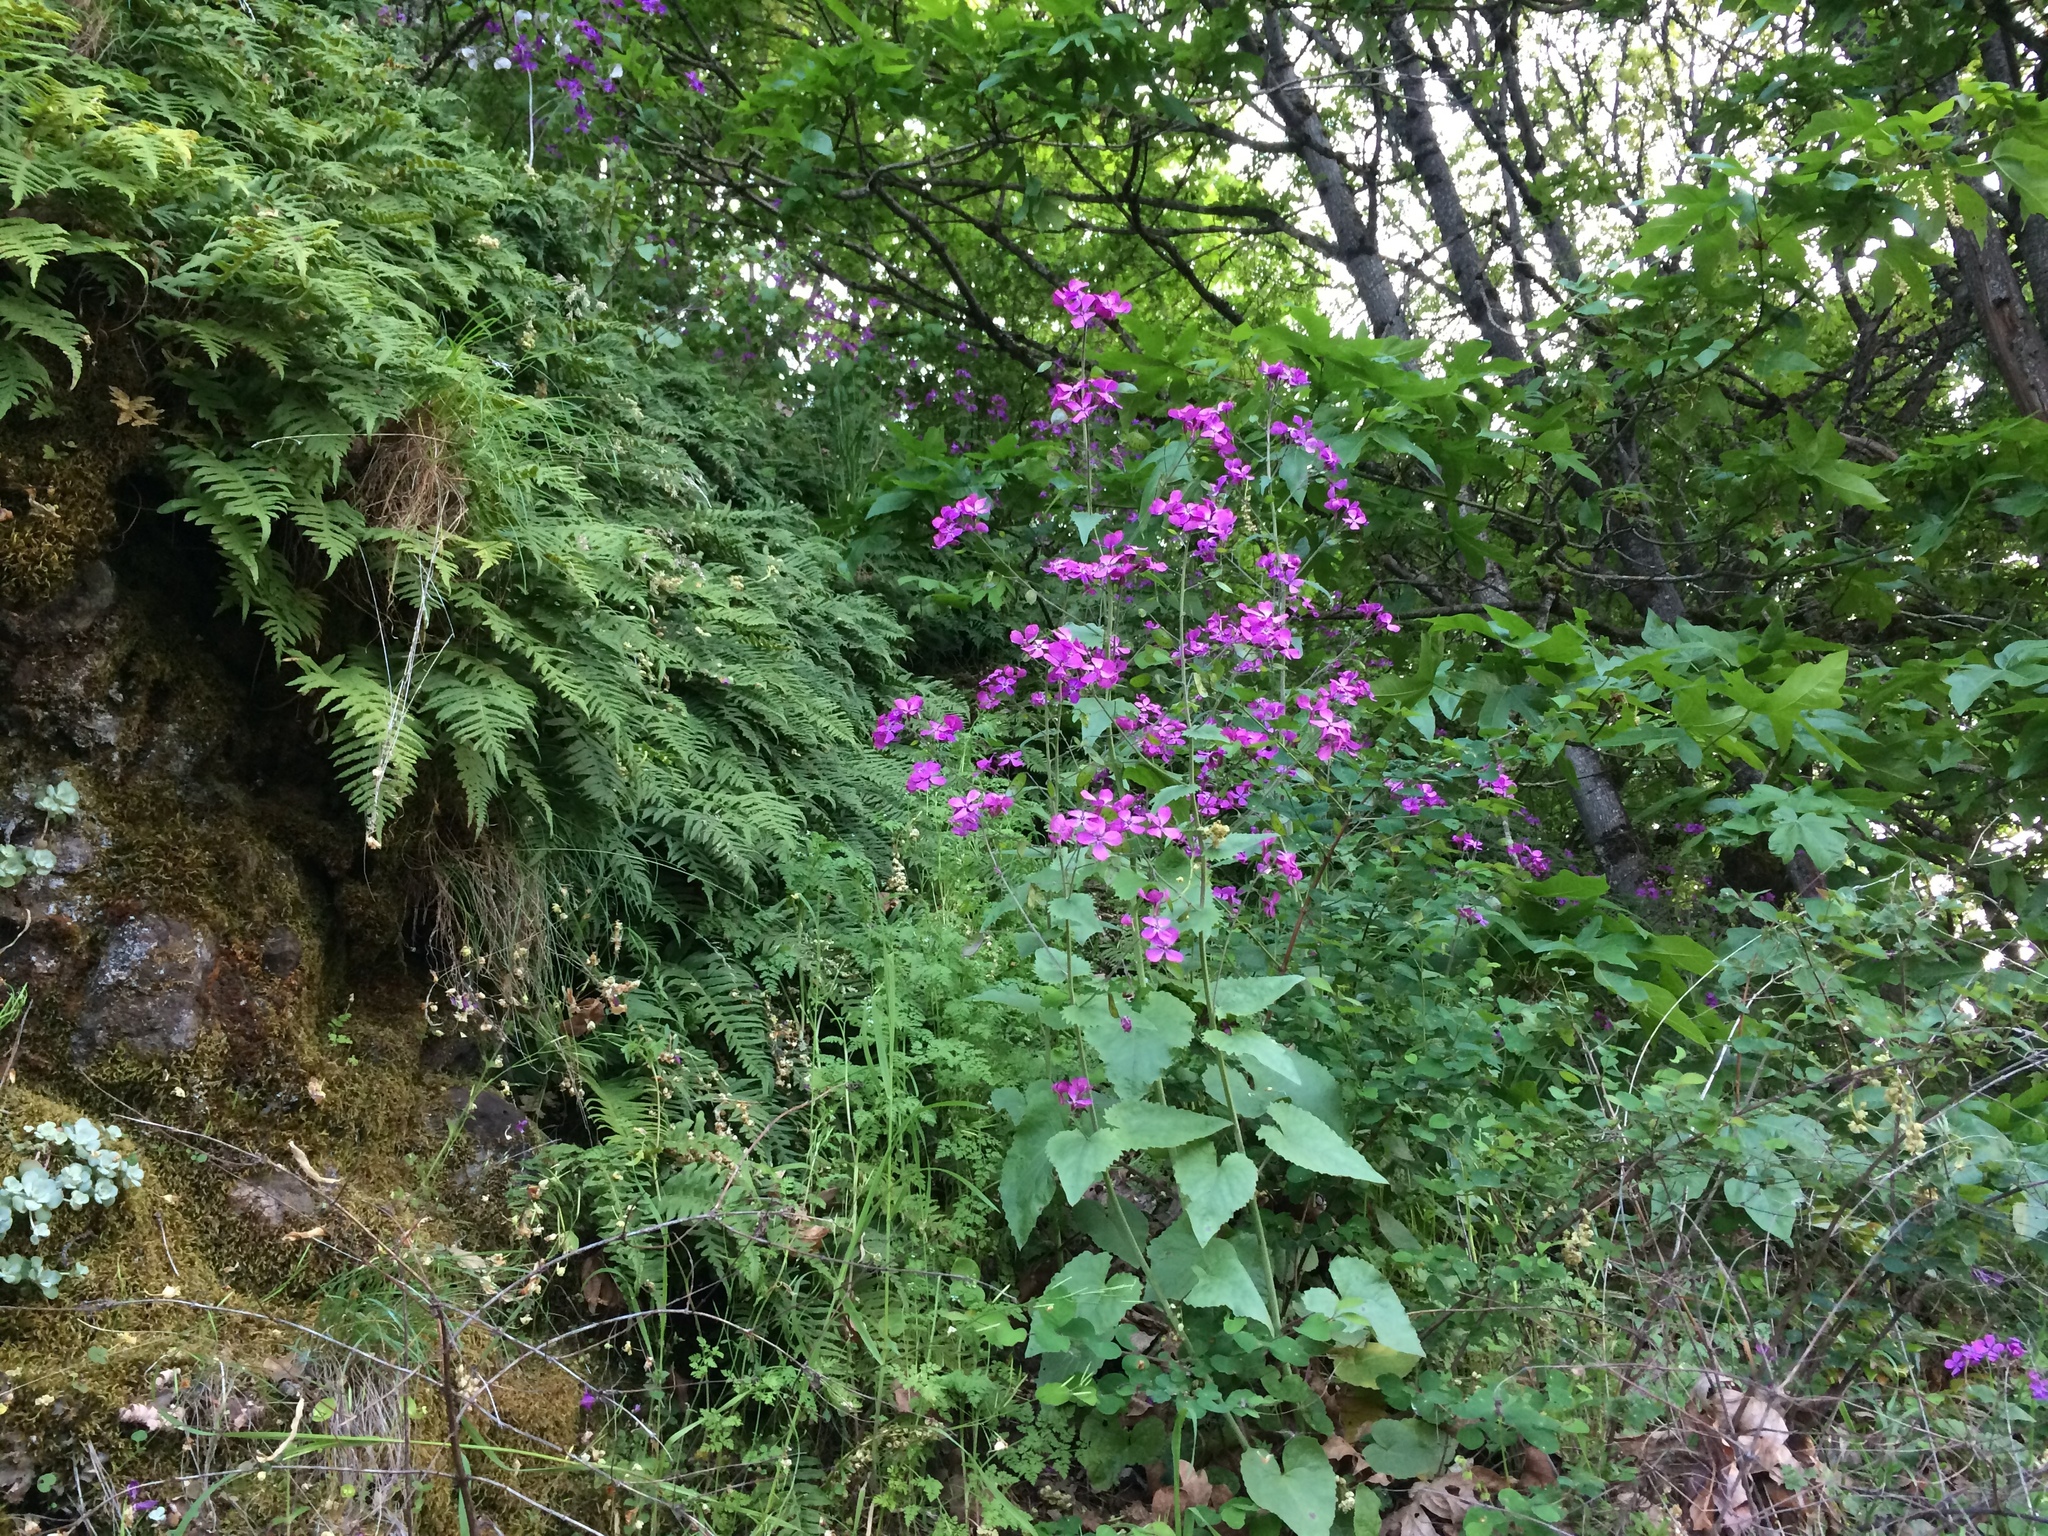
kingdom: Plantae
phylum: Tracheophyta
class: Magnoliopsida
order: Brassicales
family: Brassicaceae
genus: Lunaria
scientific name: Lunaria annua
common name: Honesty
